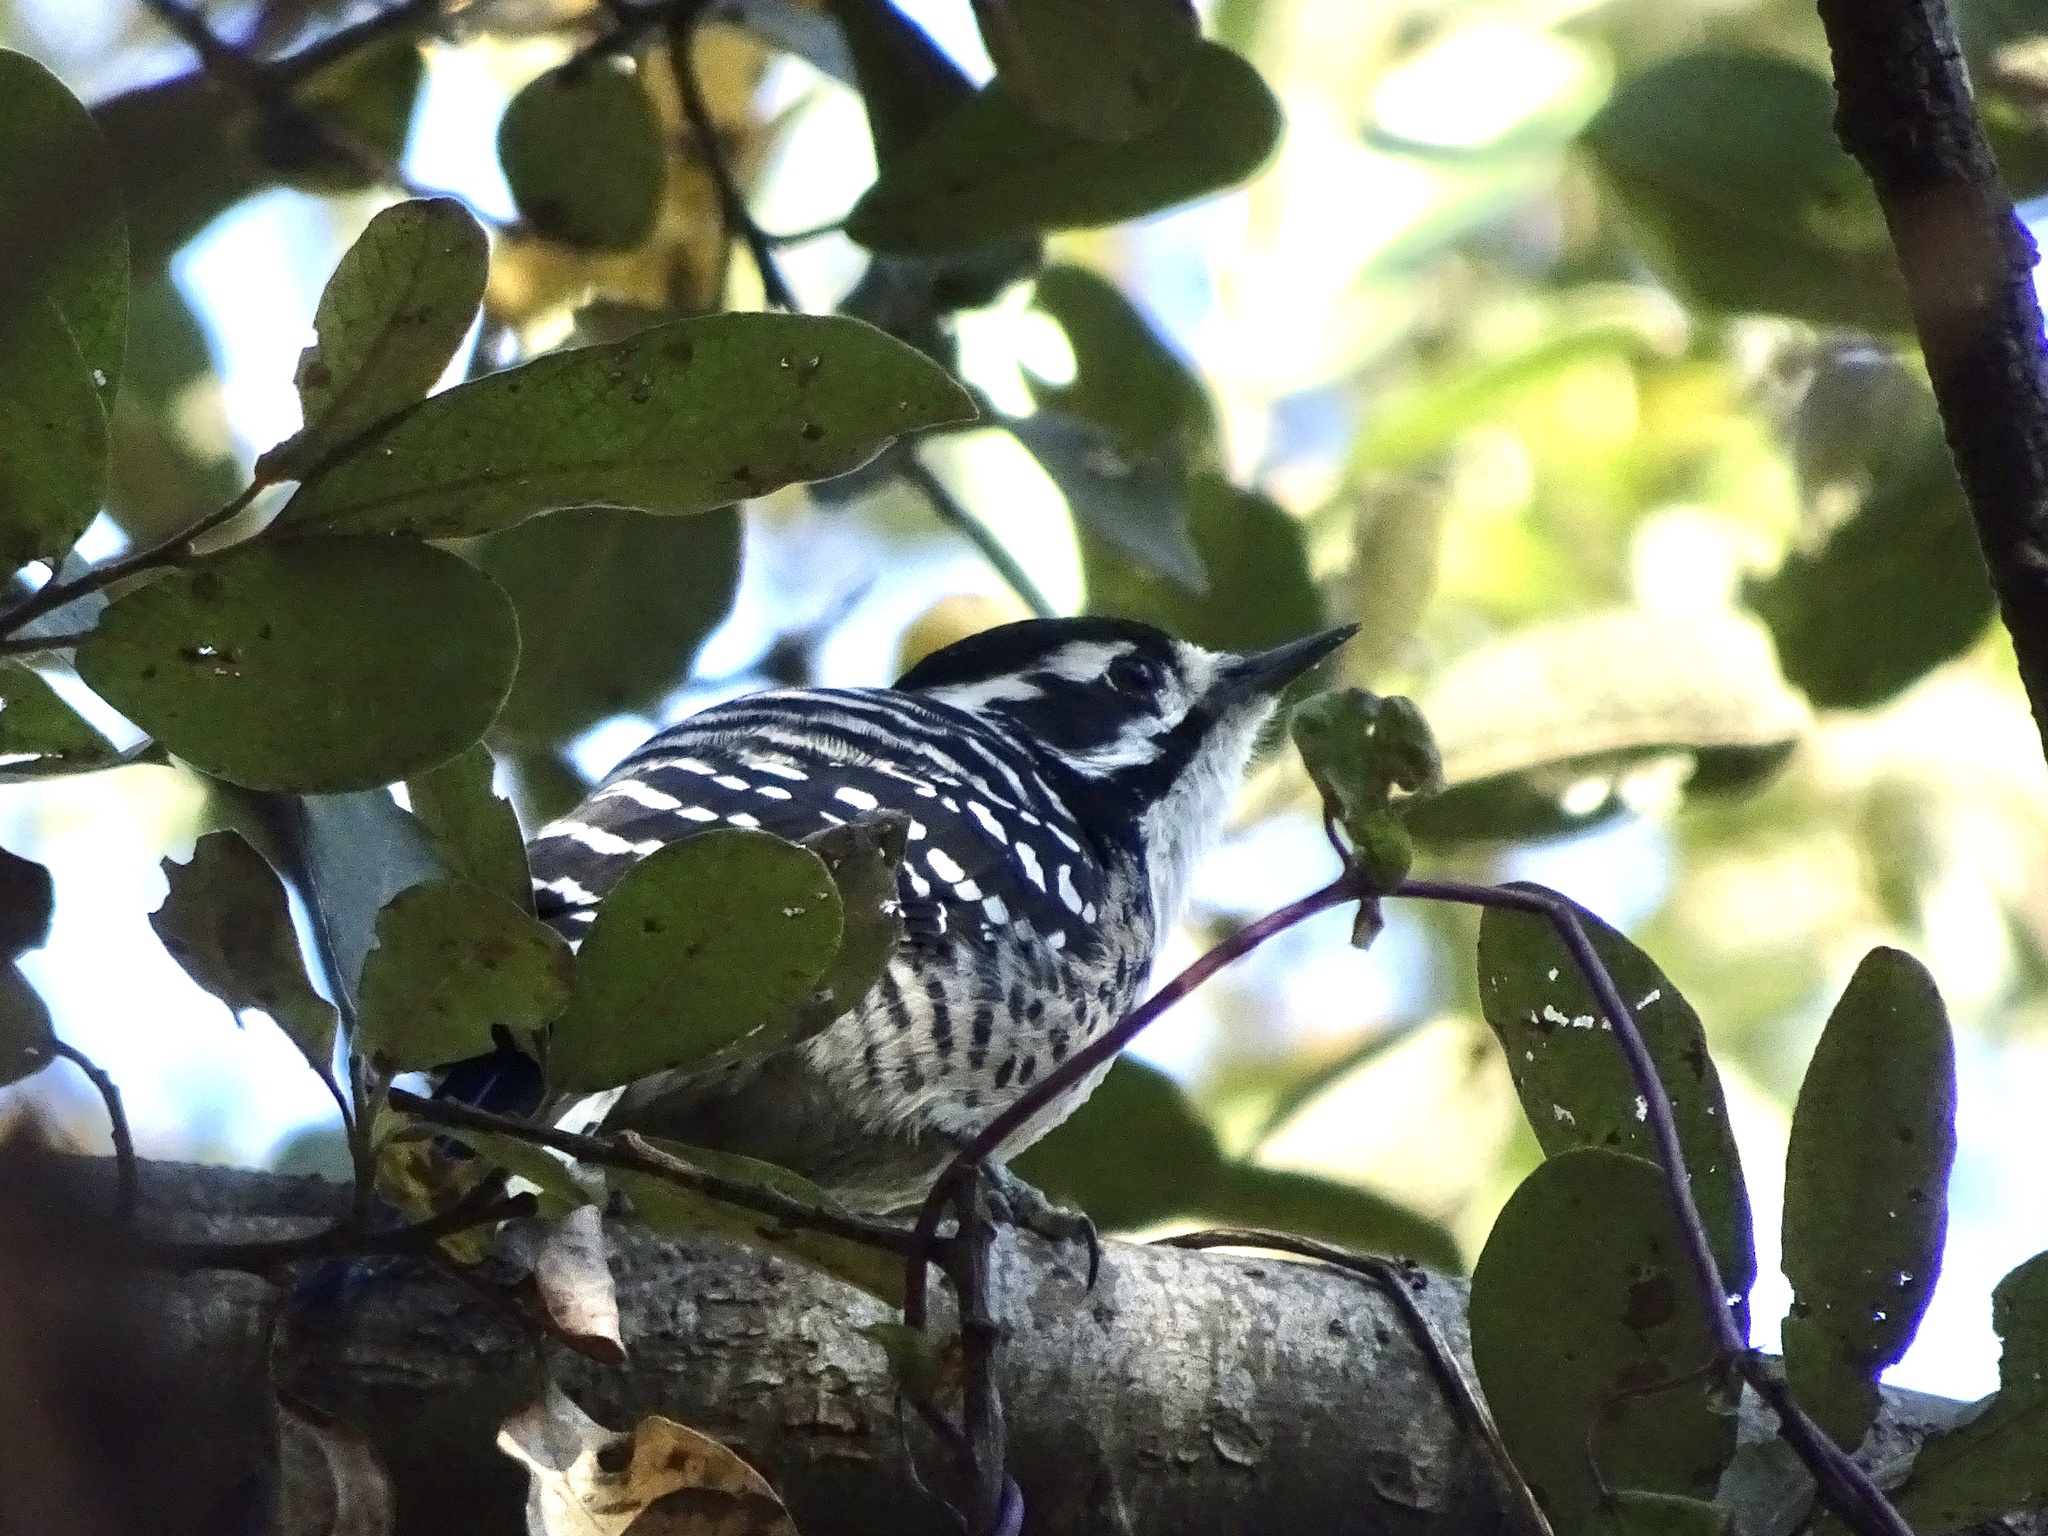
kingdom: Animalia
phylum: Chordata
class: Aves
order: Piciformes
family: Picidae
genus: Dryobates
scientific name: Dryobates nuttallii
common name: Nuttall's woodpecker
